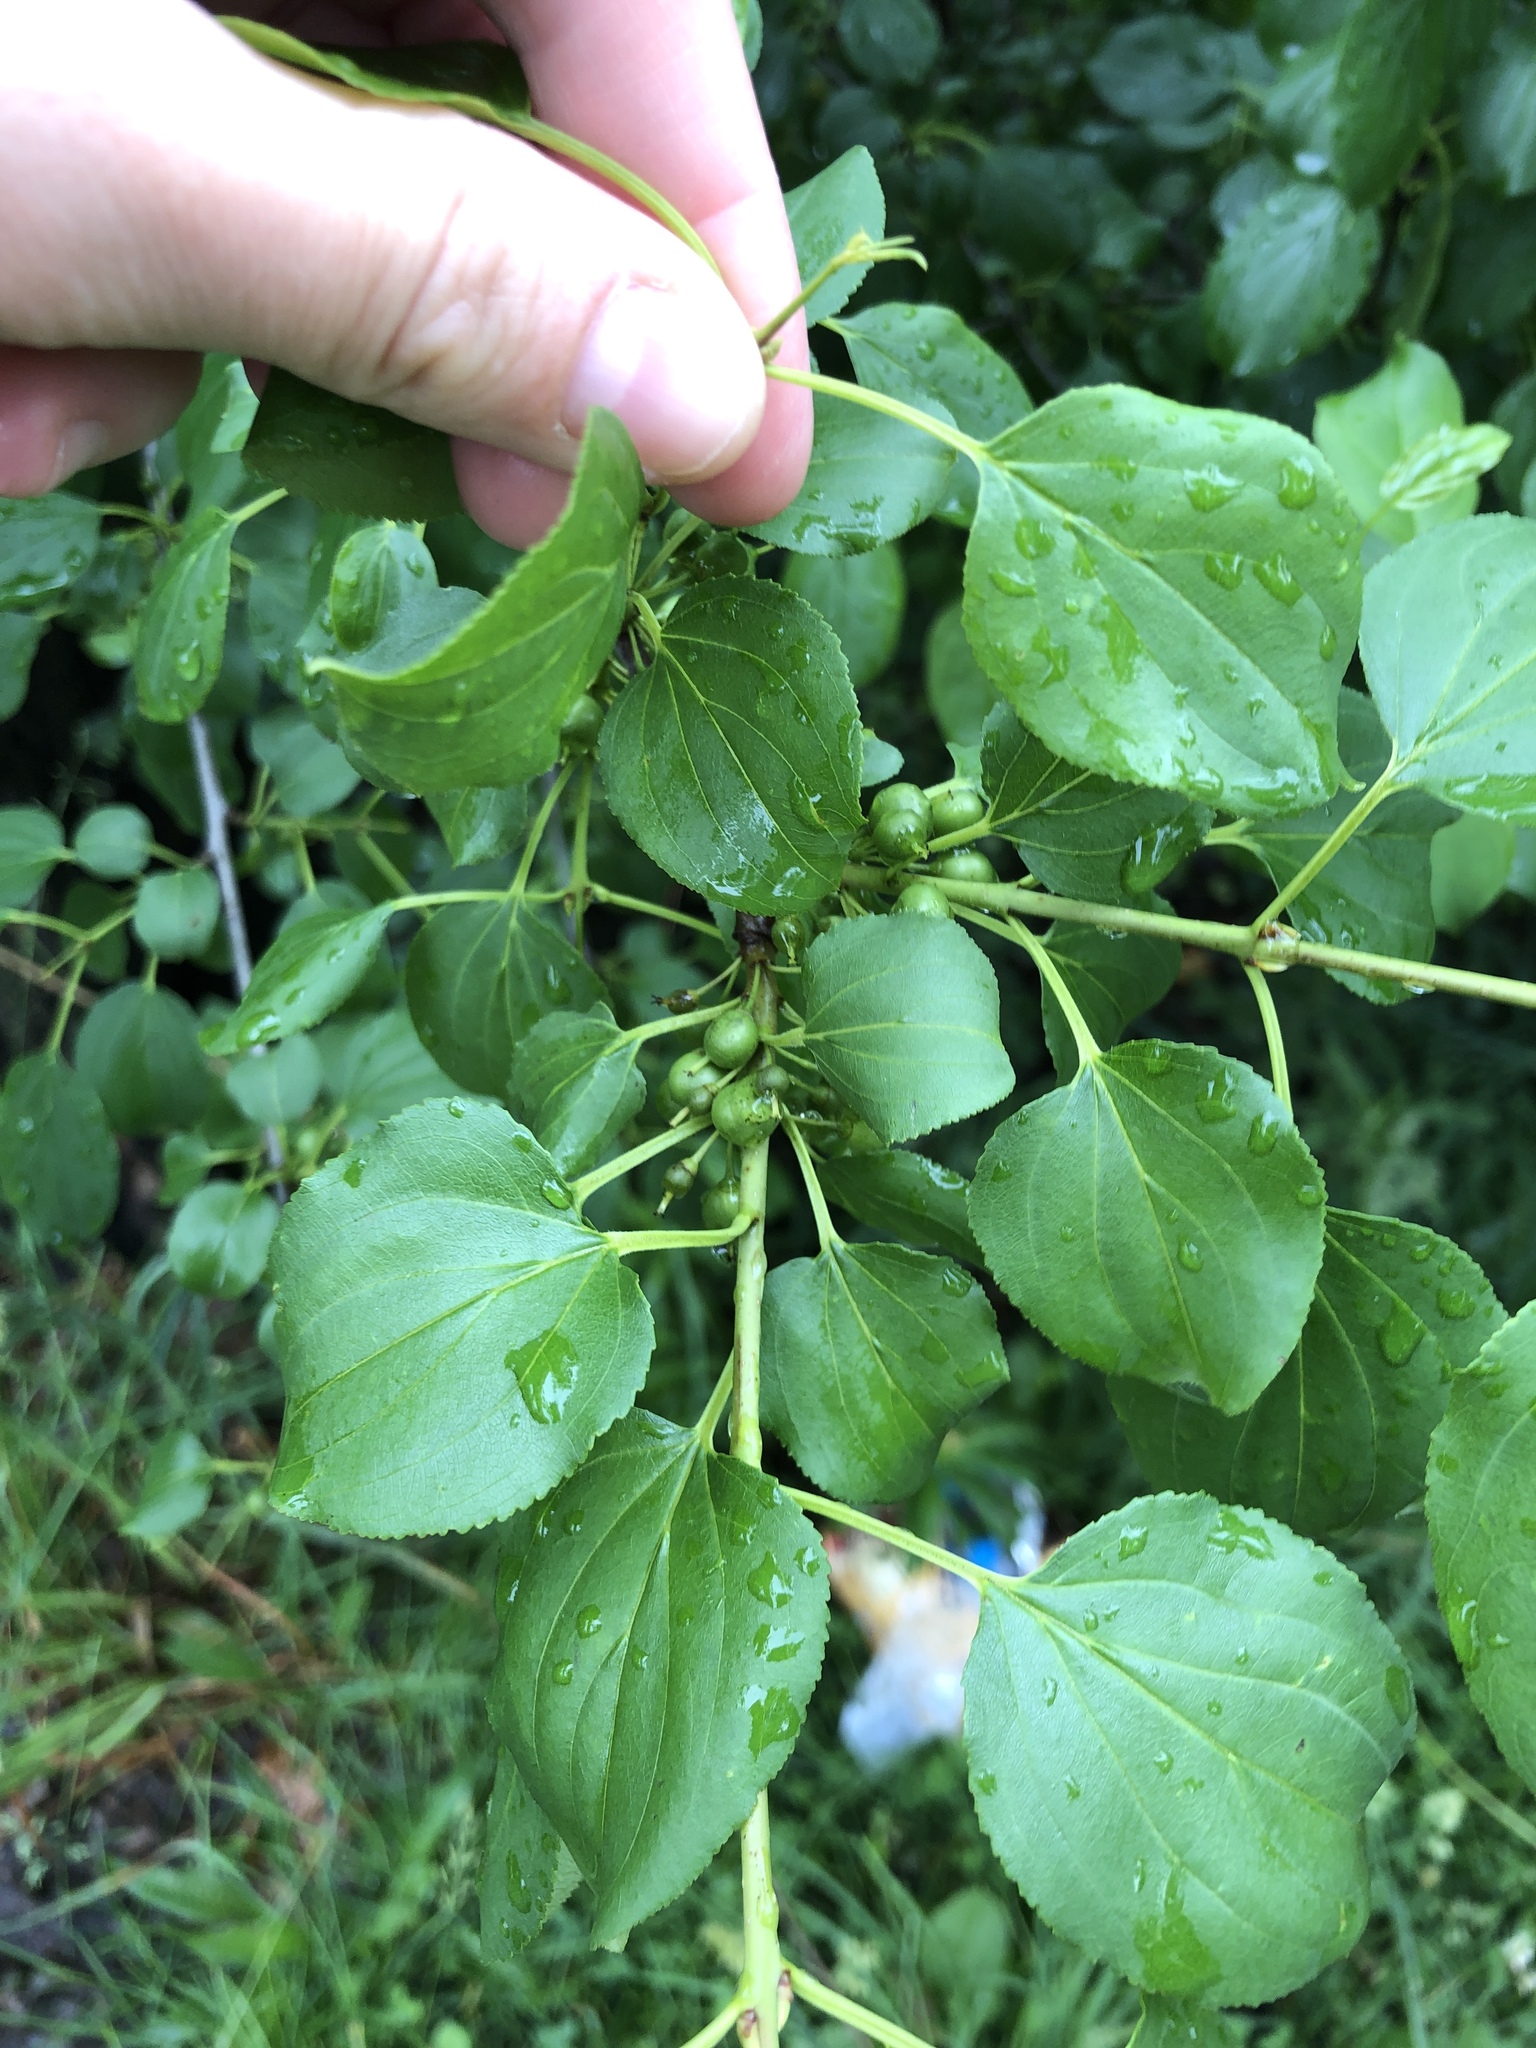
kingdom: Plantae
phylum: Tracheophyta
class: Magnoliopsida
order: Rosales
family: Rhamnaceae
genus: Rhamnus
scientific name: Rhamnus cathartica
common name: Common buckthorn
